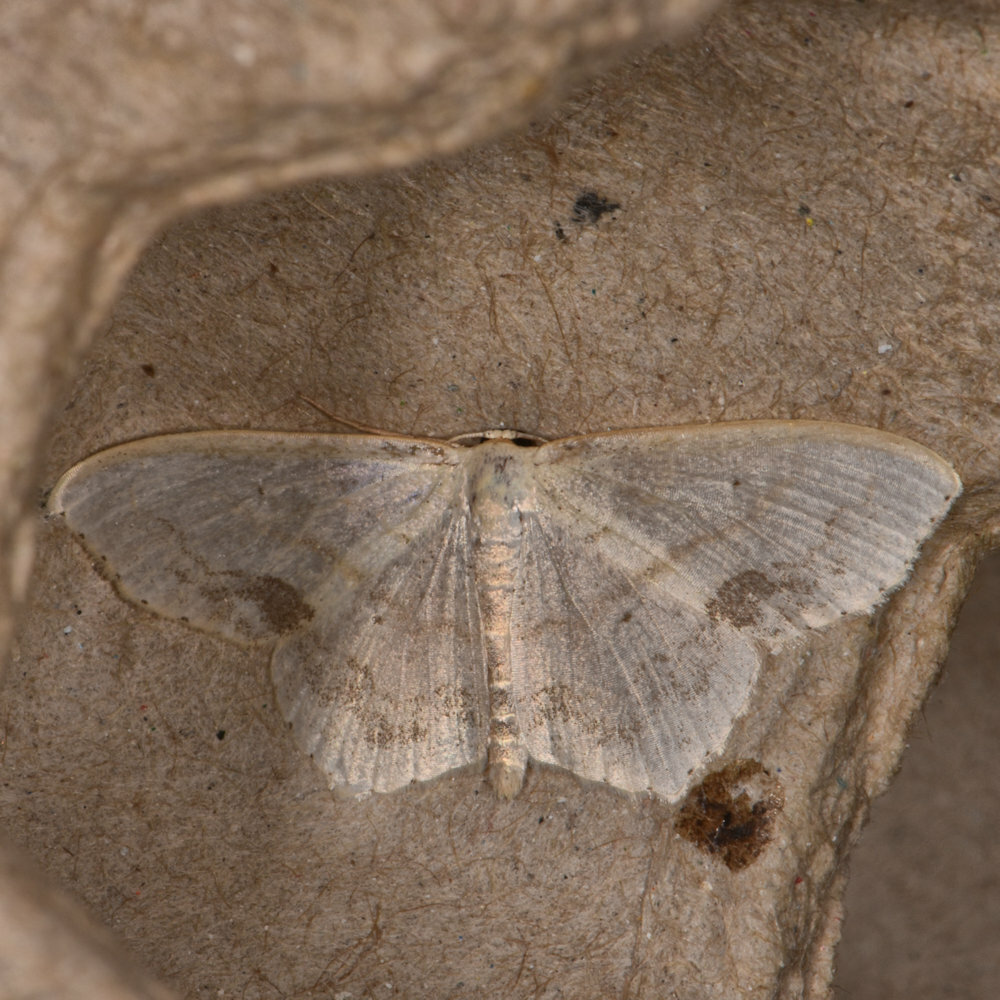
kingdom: Animalia
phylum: Arthropoda
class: Insecta
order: Lepidoptera
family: Geometridae
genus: Scopula
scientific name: Scopula limboundata
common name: Large lace border
